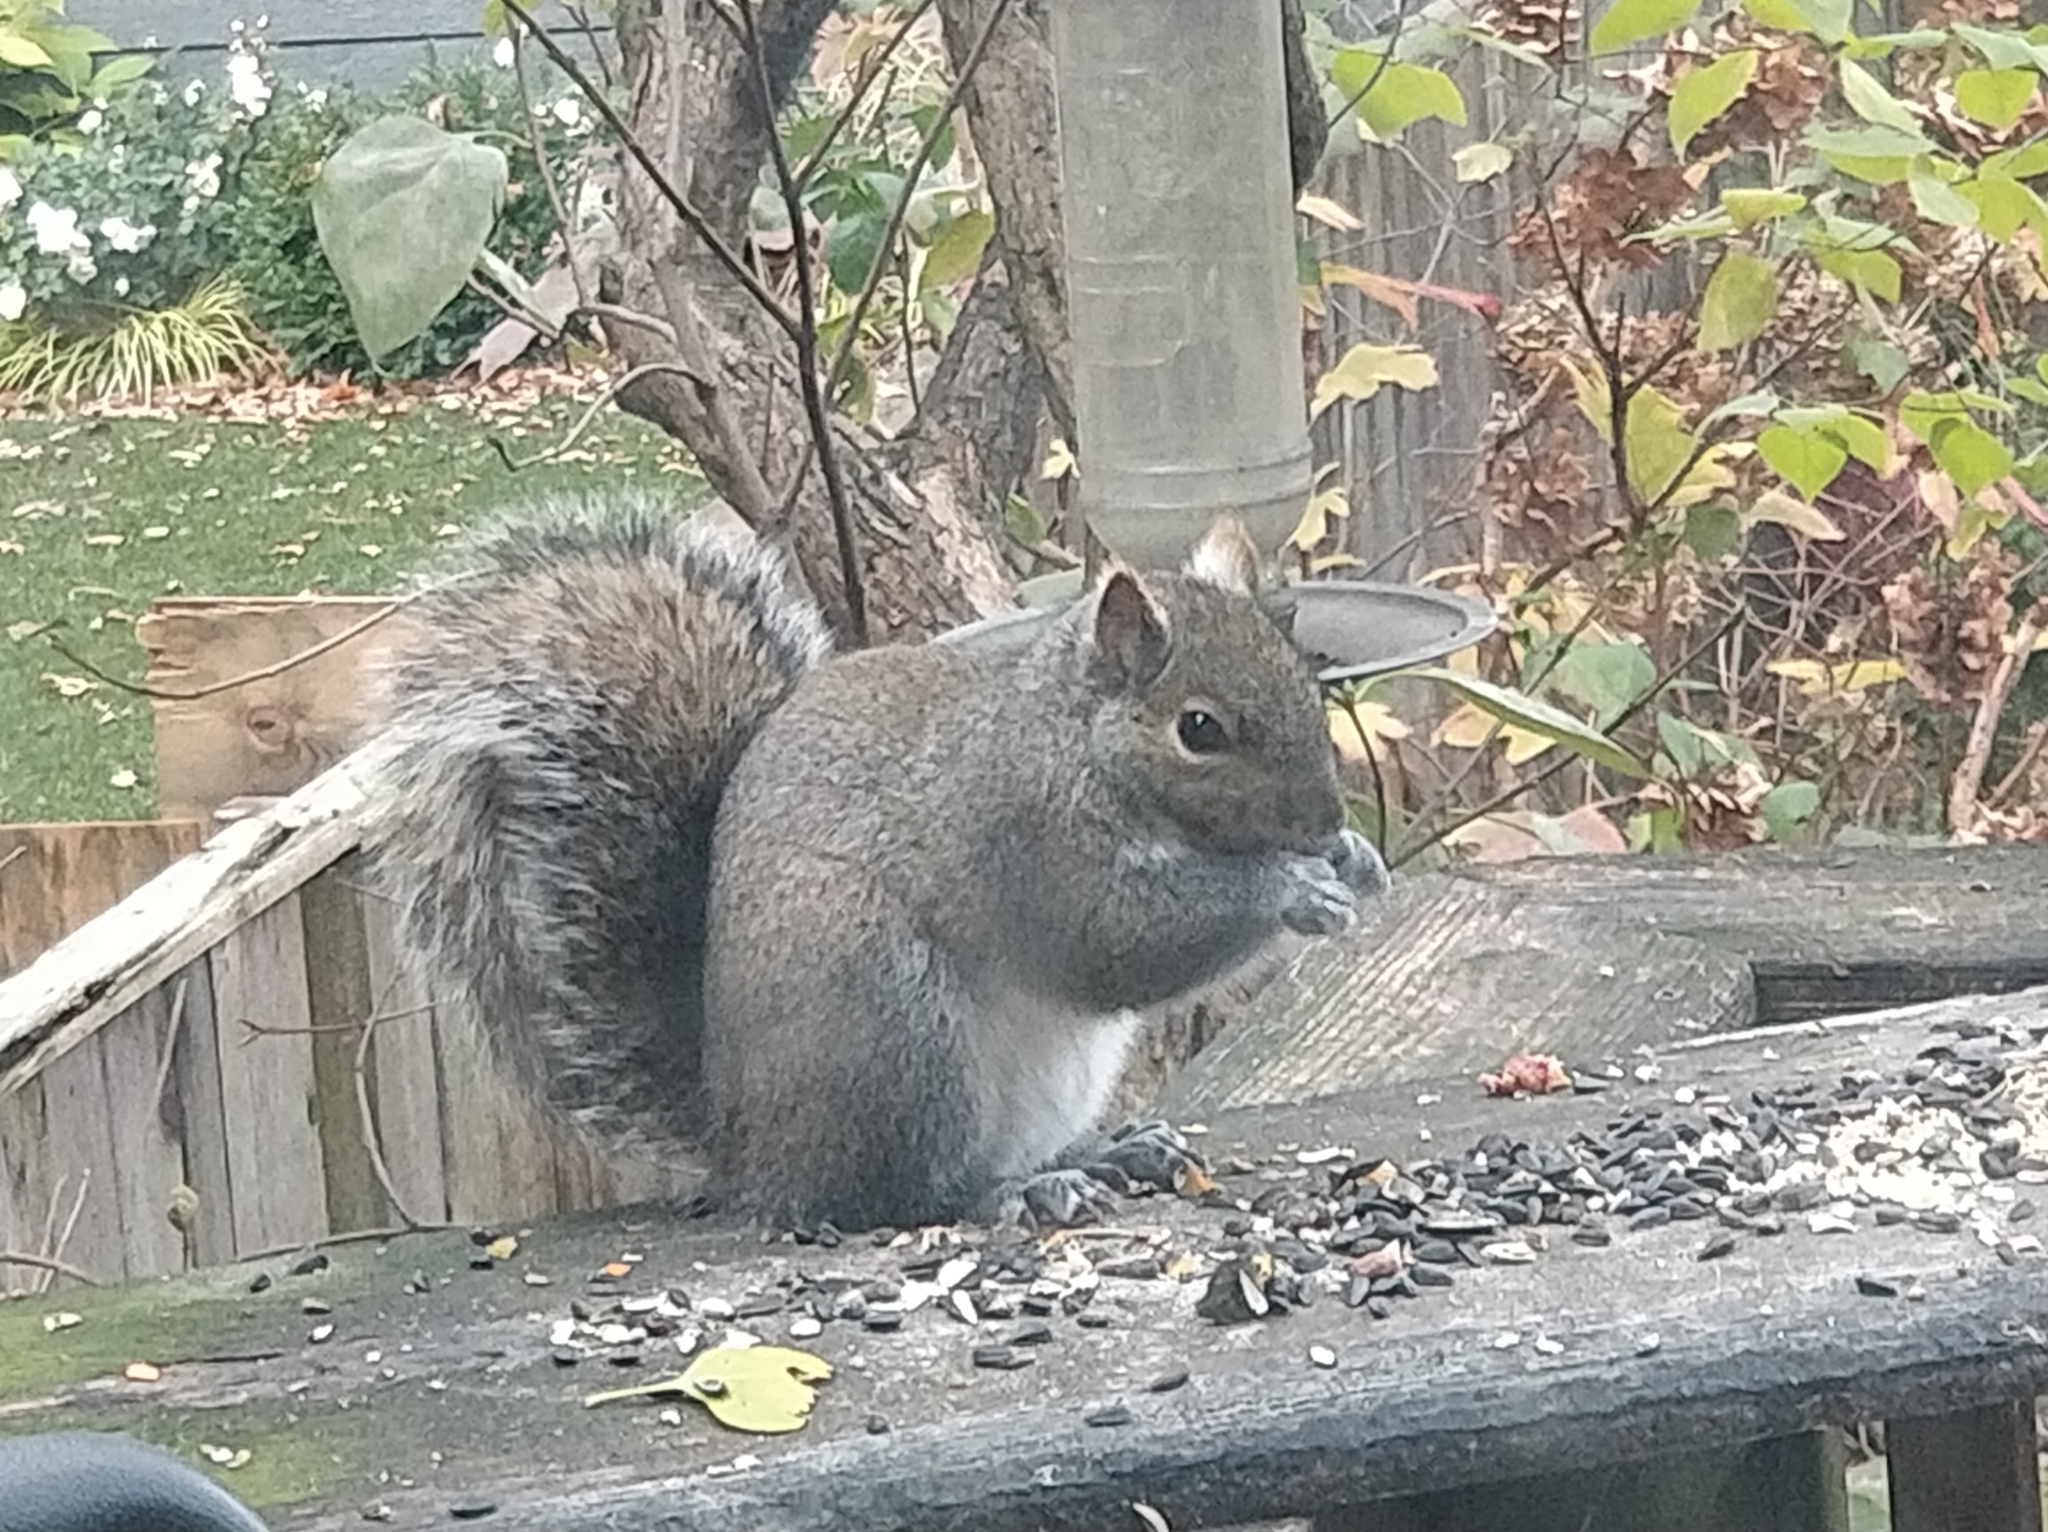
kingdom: Animalia
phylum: Chordata
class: Mammalia
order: Rodentia
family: Sciuridae
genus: Sciurus
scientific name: Sciurus carolinensis
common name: Eastern gray squirrel
